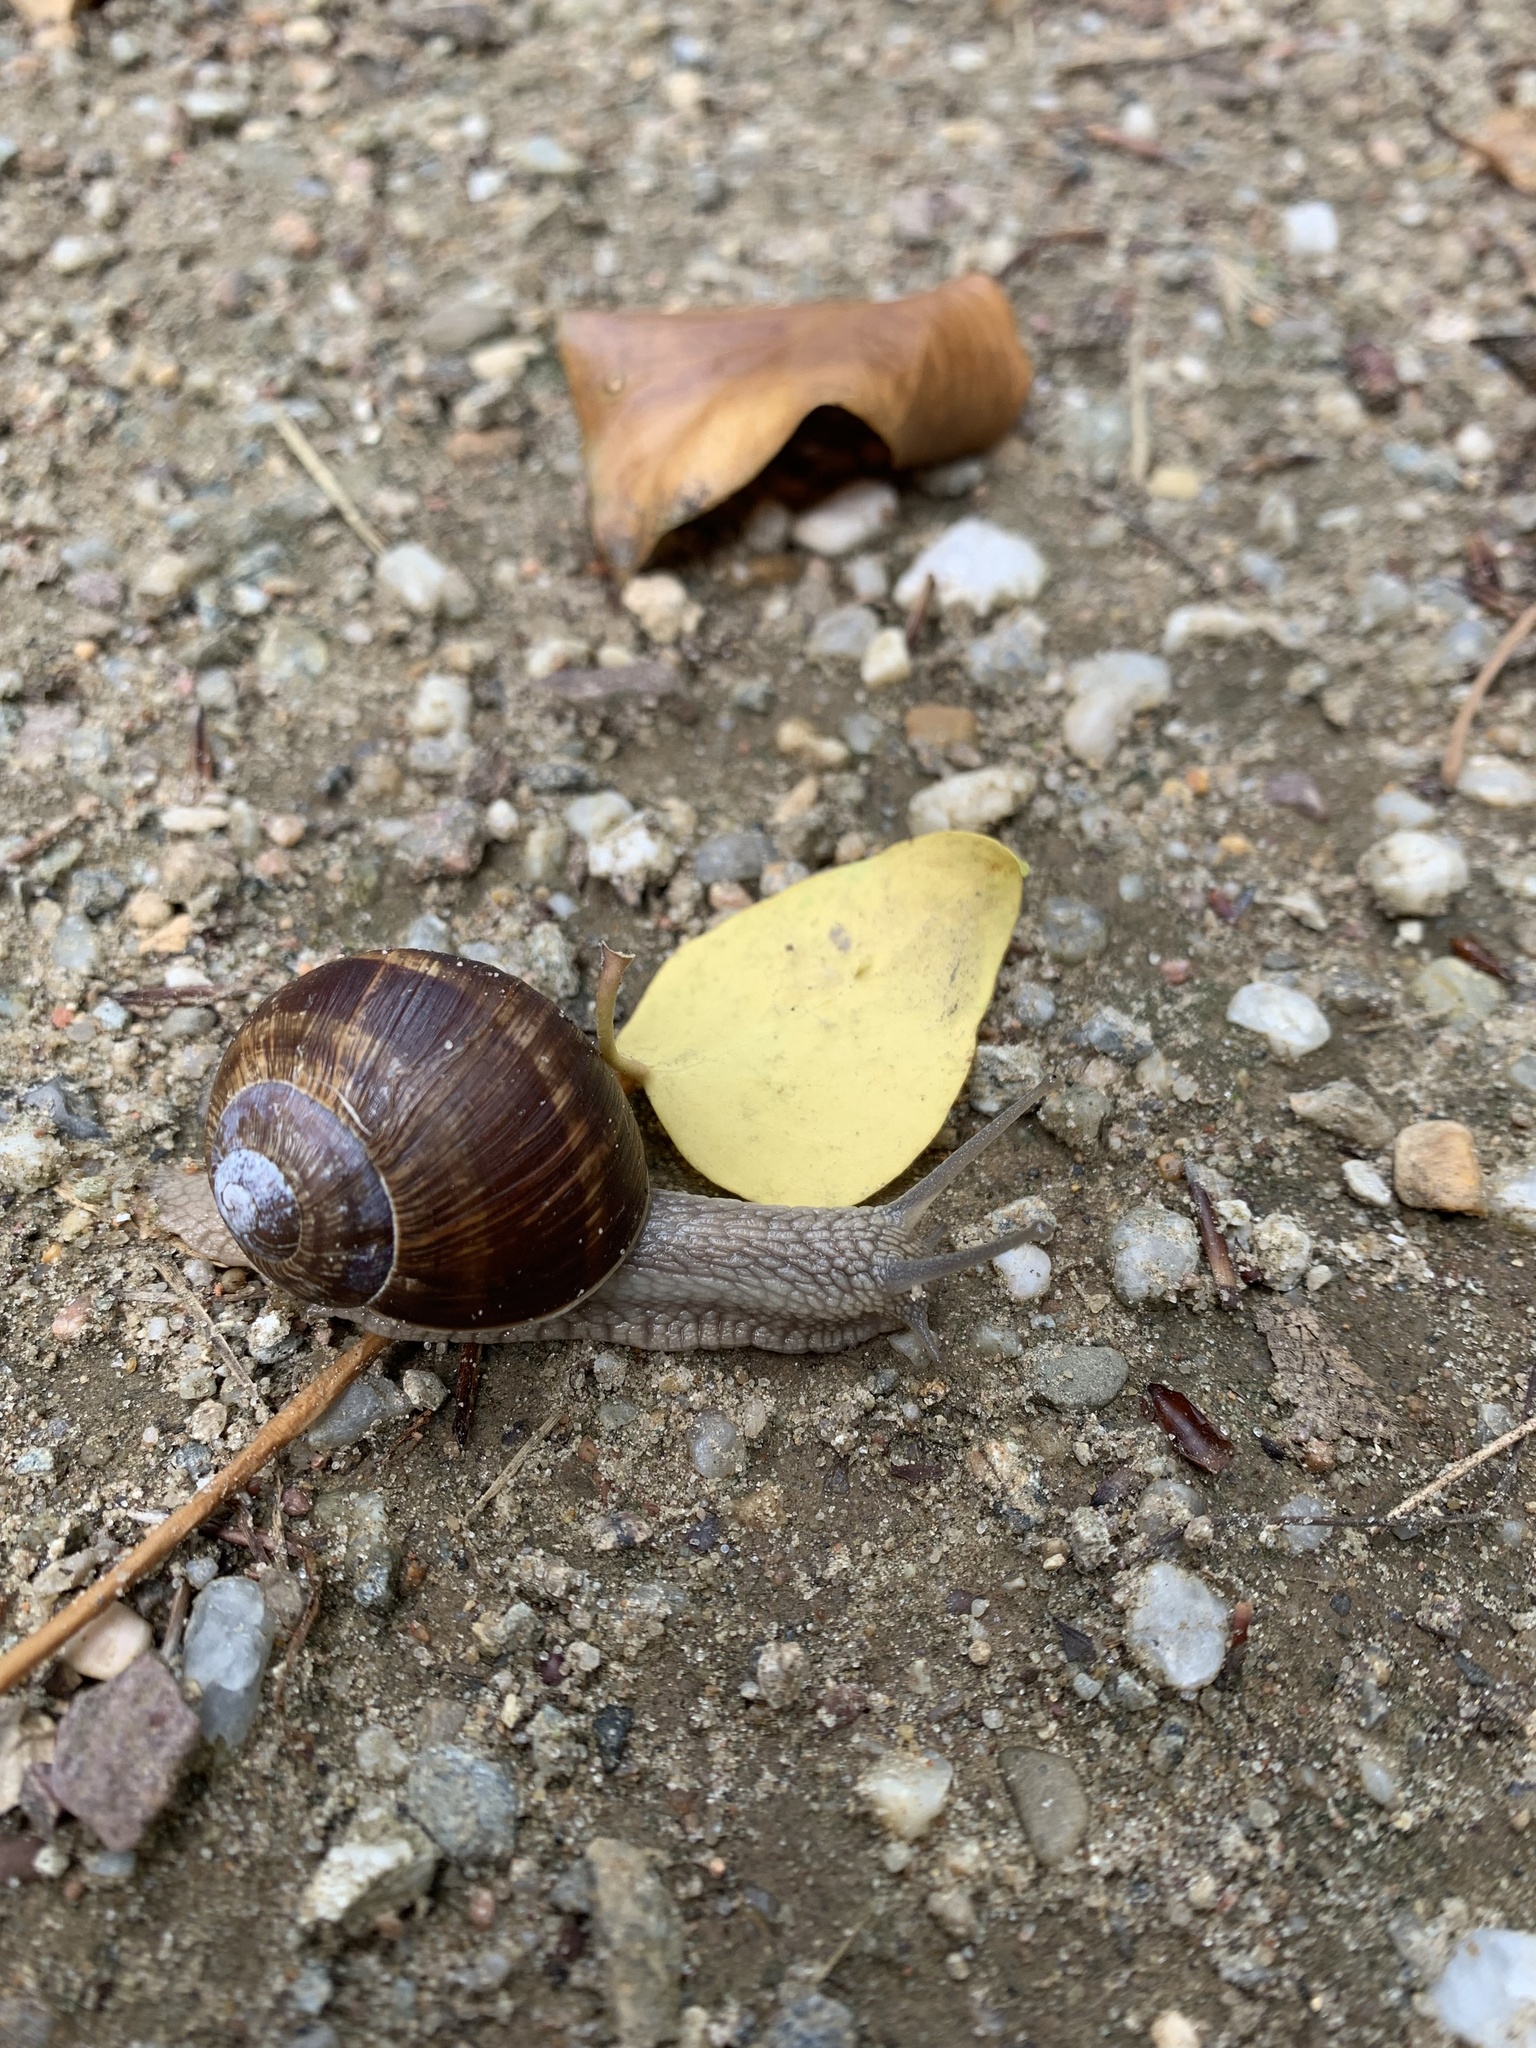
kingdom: Animalia
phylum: Mollusca
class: Gastropoda
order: Stylommatophora
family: Helicidae
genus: Helix
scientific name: Helix pomatia
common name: Roman snail
